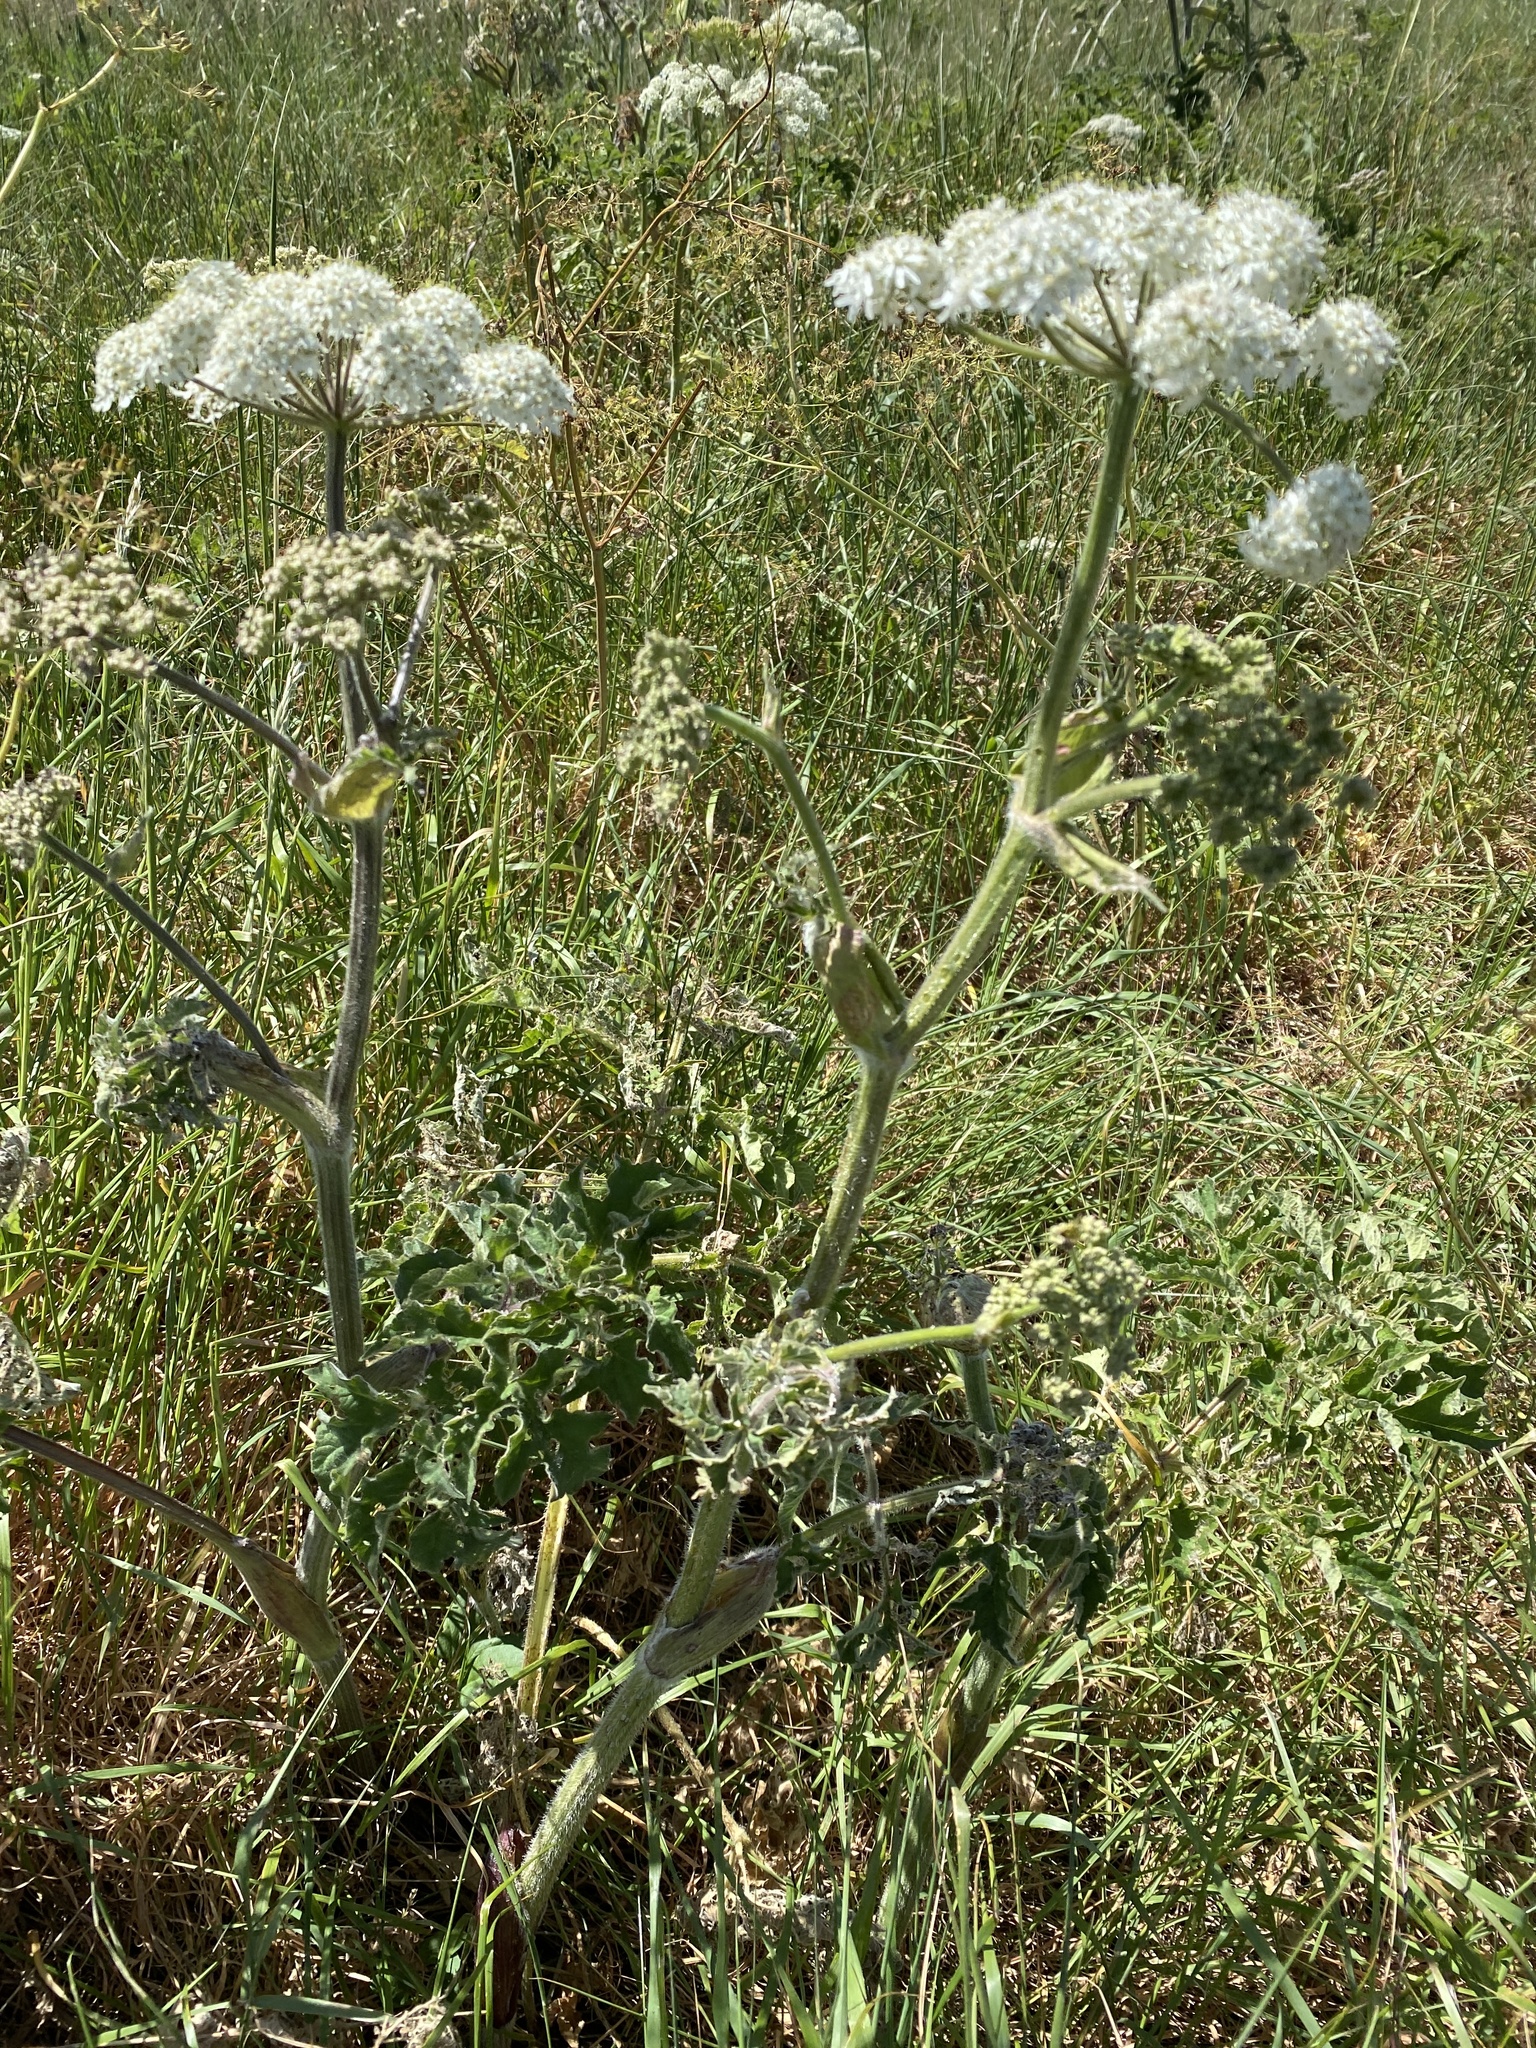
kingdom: Plantae
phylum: Tracheophyta
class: Magnoliopsida
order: Apiales
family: Apiaceae
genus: Heracleum
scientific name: Heracleum sphondylium
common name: Hogweed
